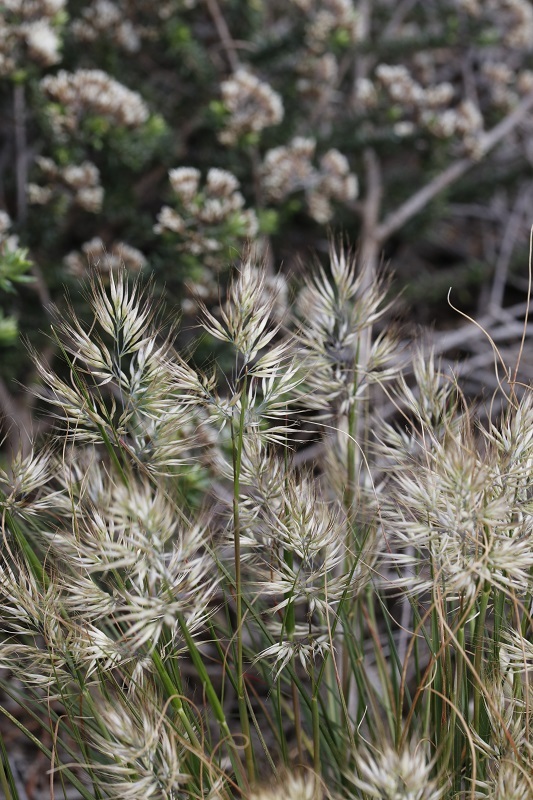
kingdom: Plantae
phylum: Tracheophyta
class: Liliopsida
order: Poales
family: Poaceae
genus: Pentameris
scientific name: Pentameris curvifolia
